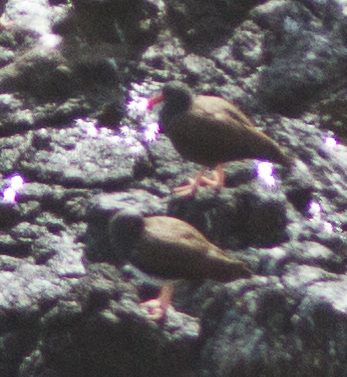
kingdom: Animalia
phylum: Chordata
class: Aves
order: Charadriiformes
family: Haematopodidae
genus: Haematopus
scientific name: Haematopus bachmani
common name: Black oystercatcher
